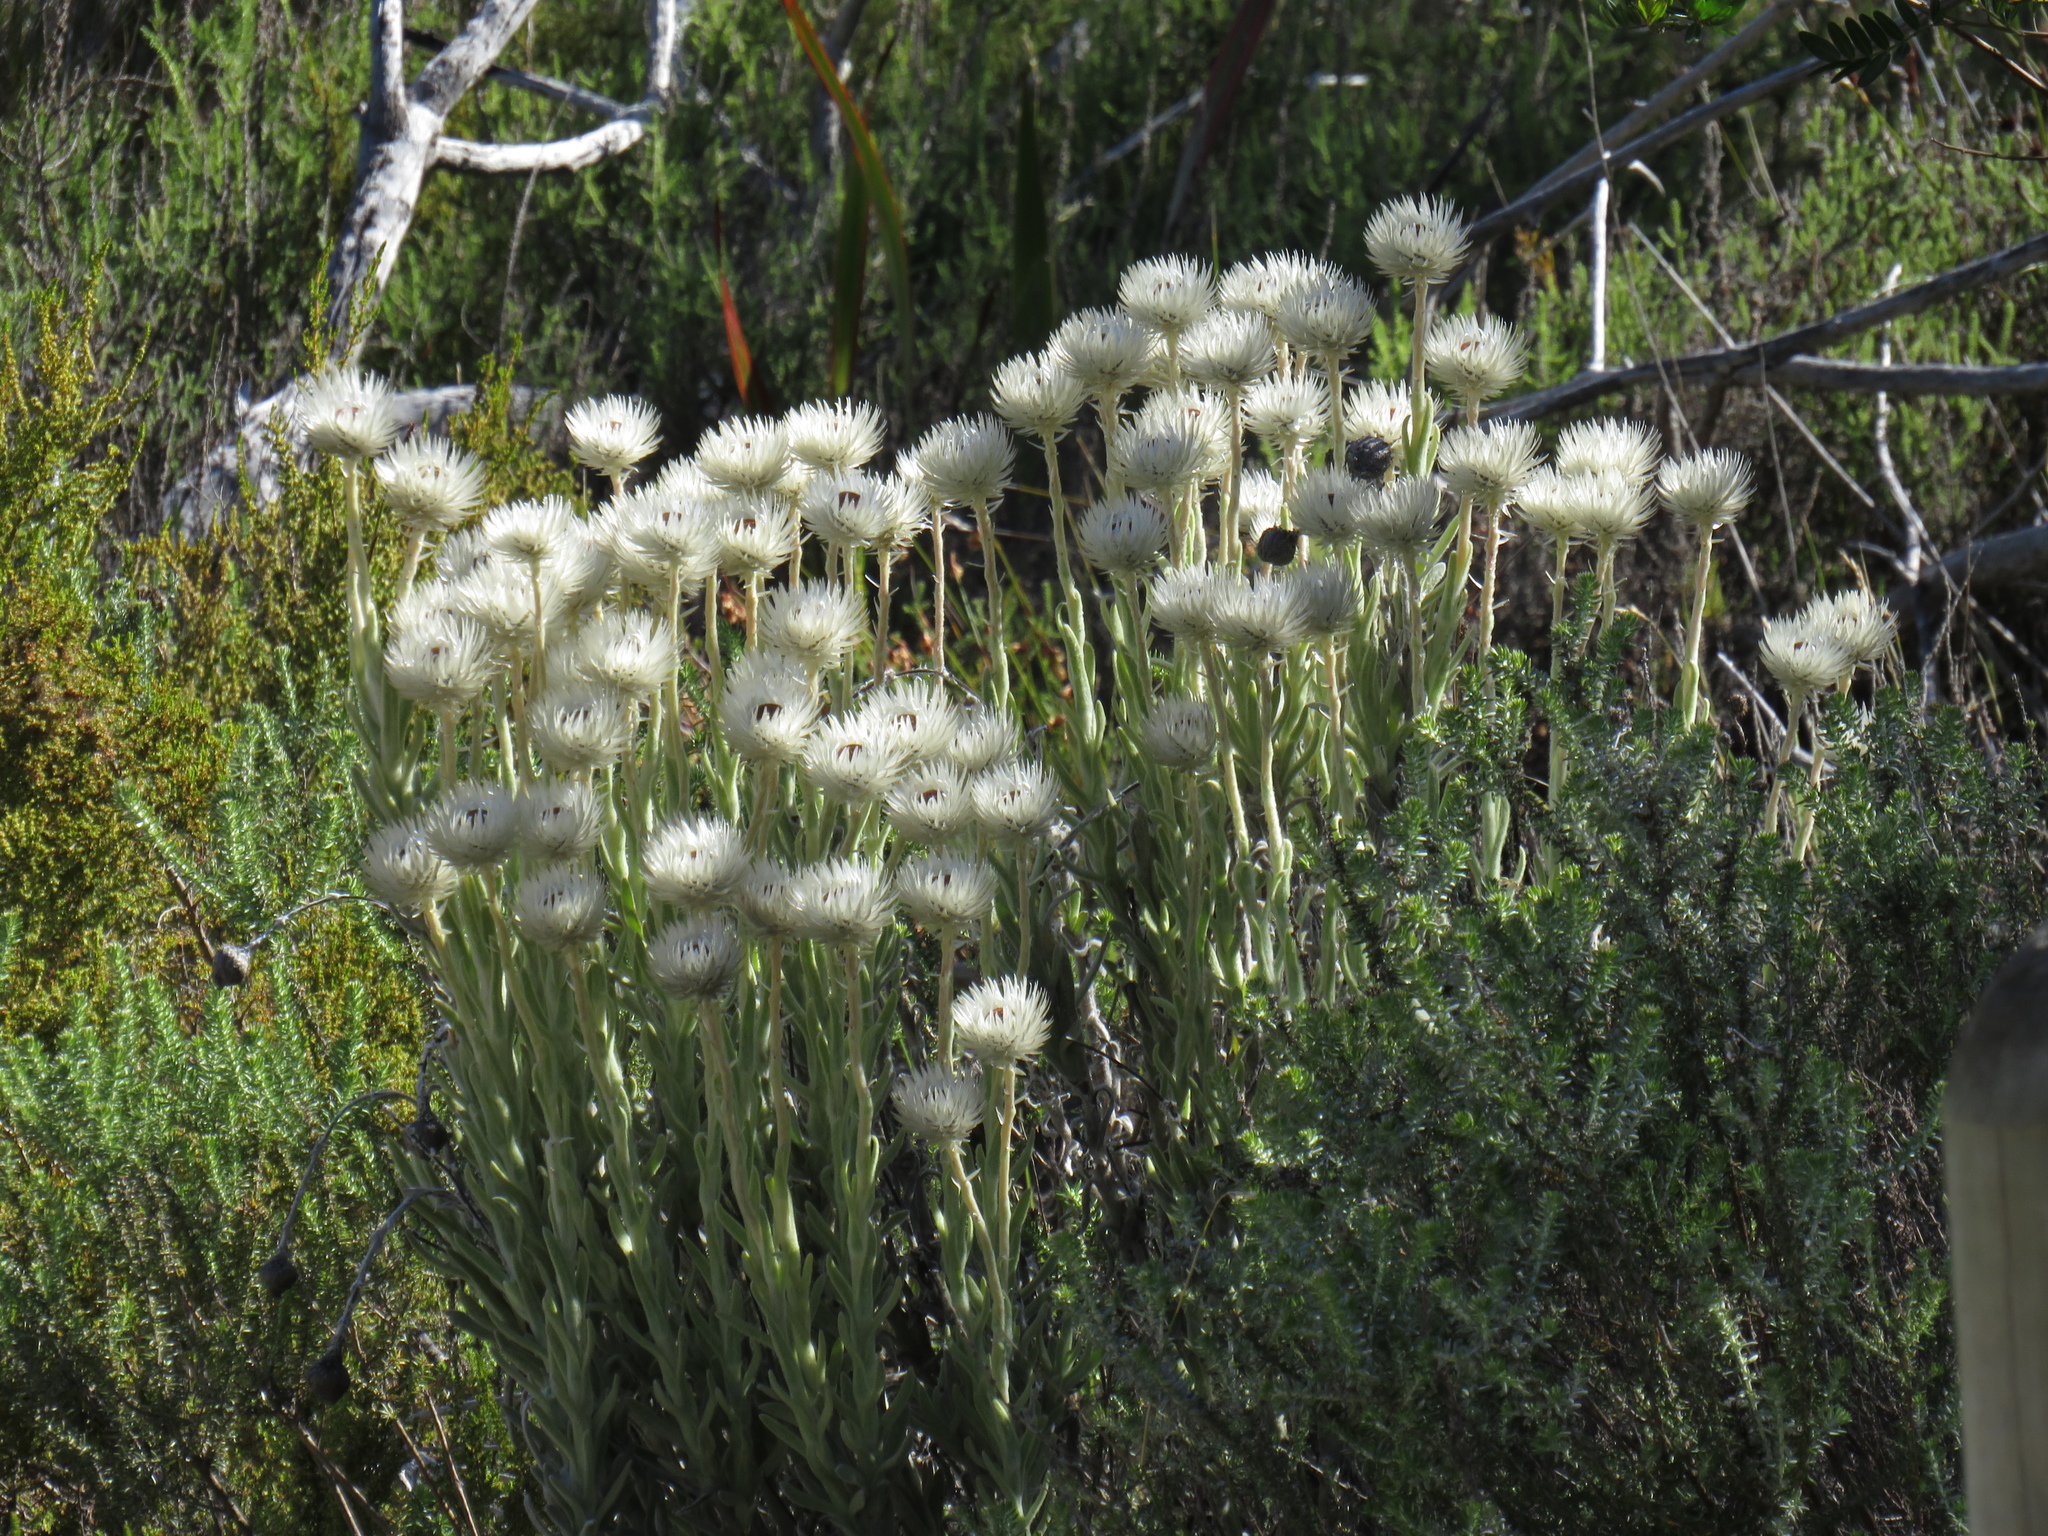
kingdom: Plantae
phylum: Tracheophyta
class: Magnoliopsida
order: Asterales
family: Asteraceae
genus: Syncarpha
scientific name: Syncarpha vestita
